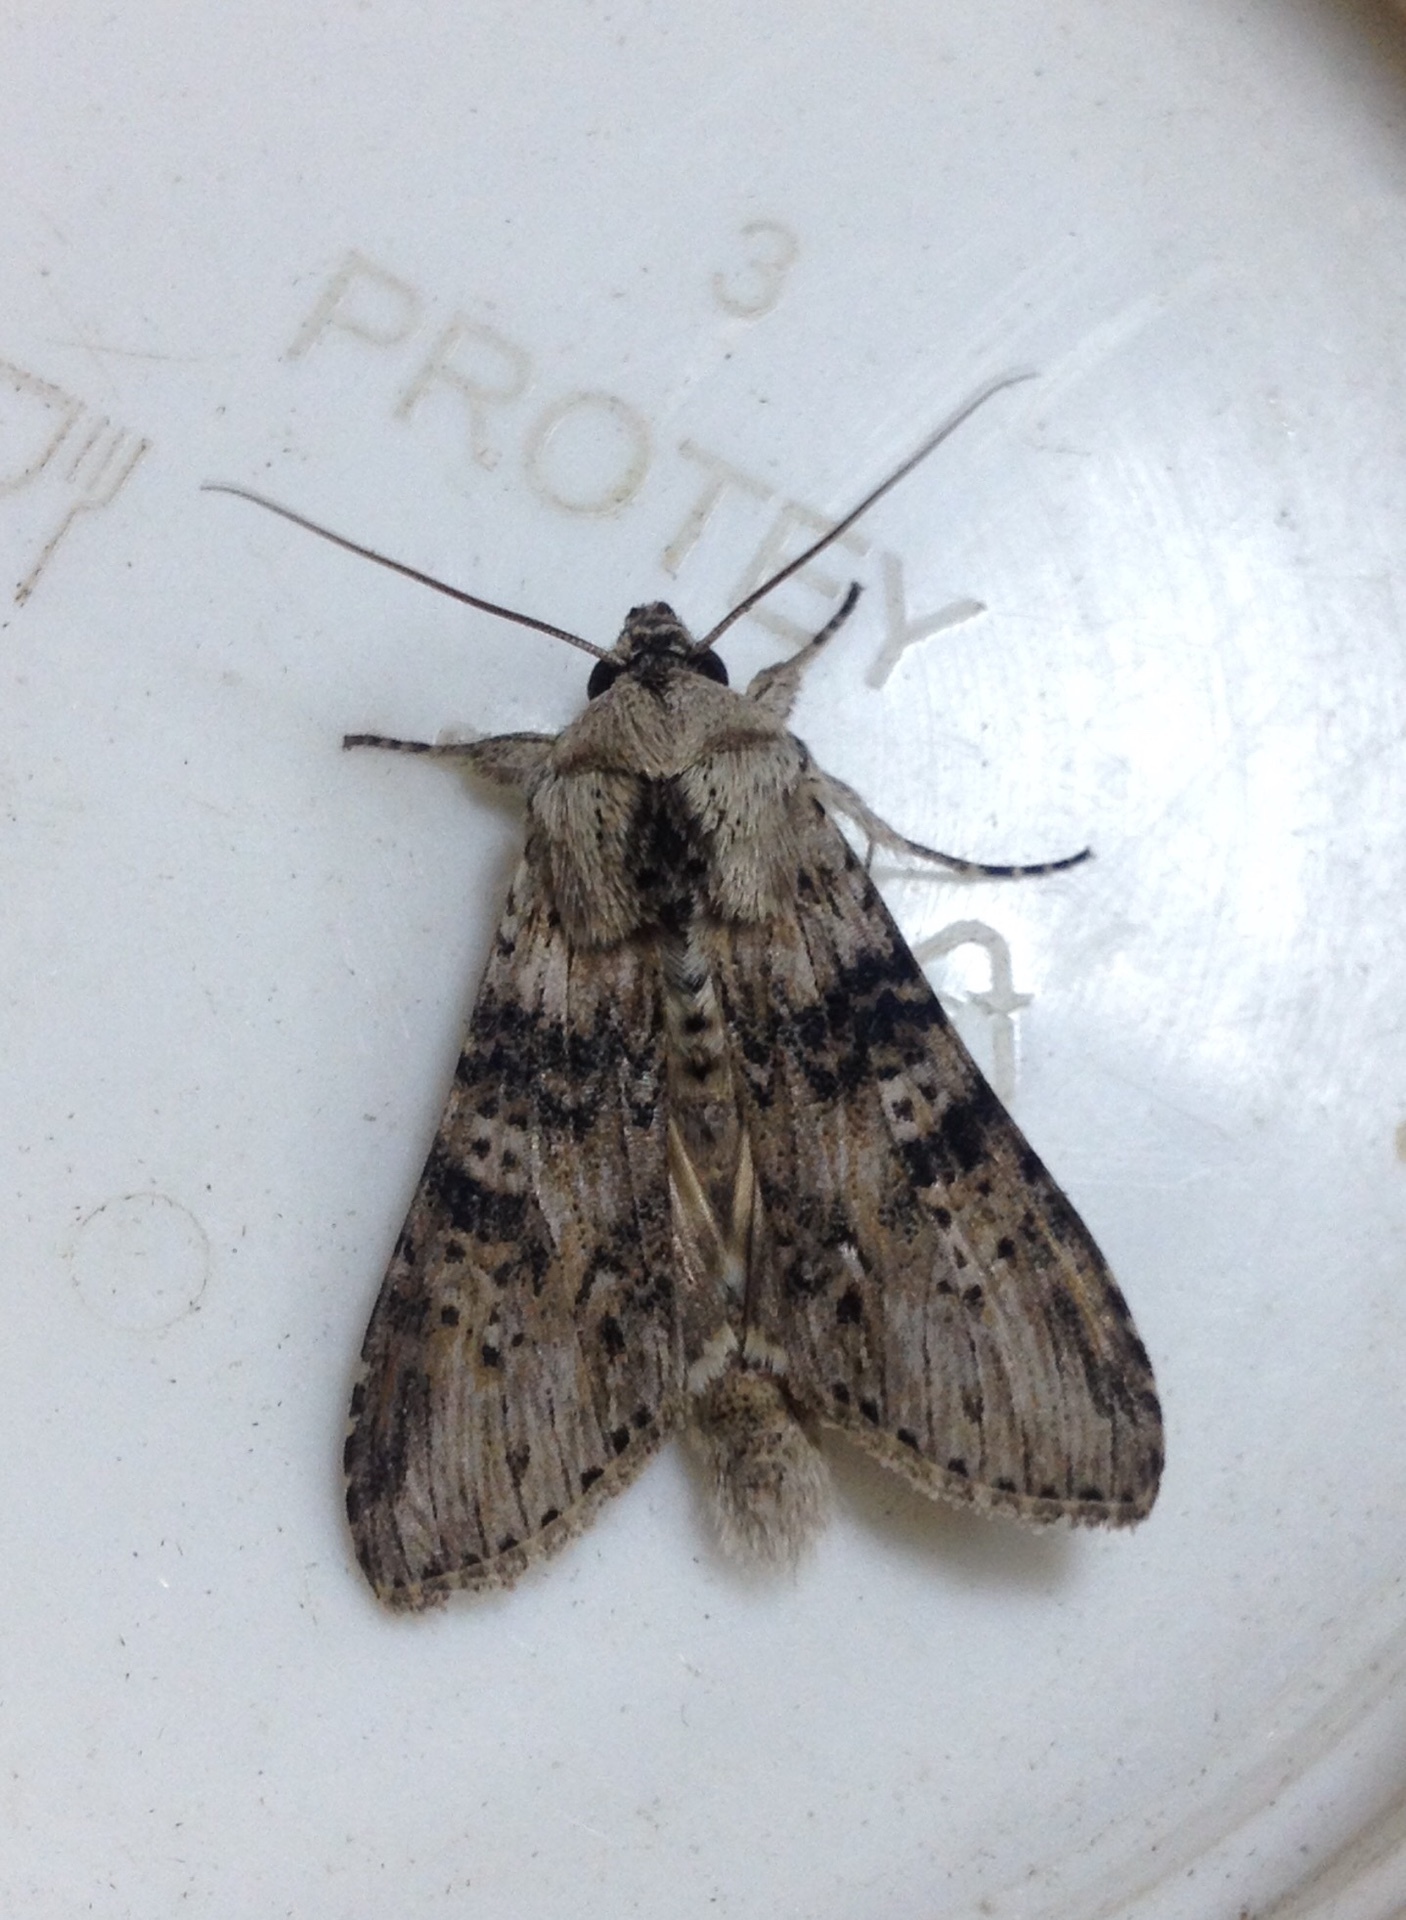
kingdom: Animalia
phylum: Arthropoda
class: Insecta
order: Lepidoptera
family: Noctuidae
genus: Cucullia
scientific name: Cucullia absinthii
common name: Wormwood
